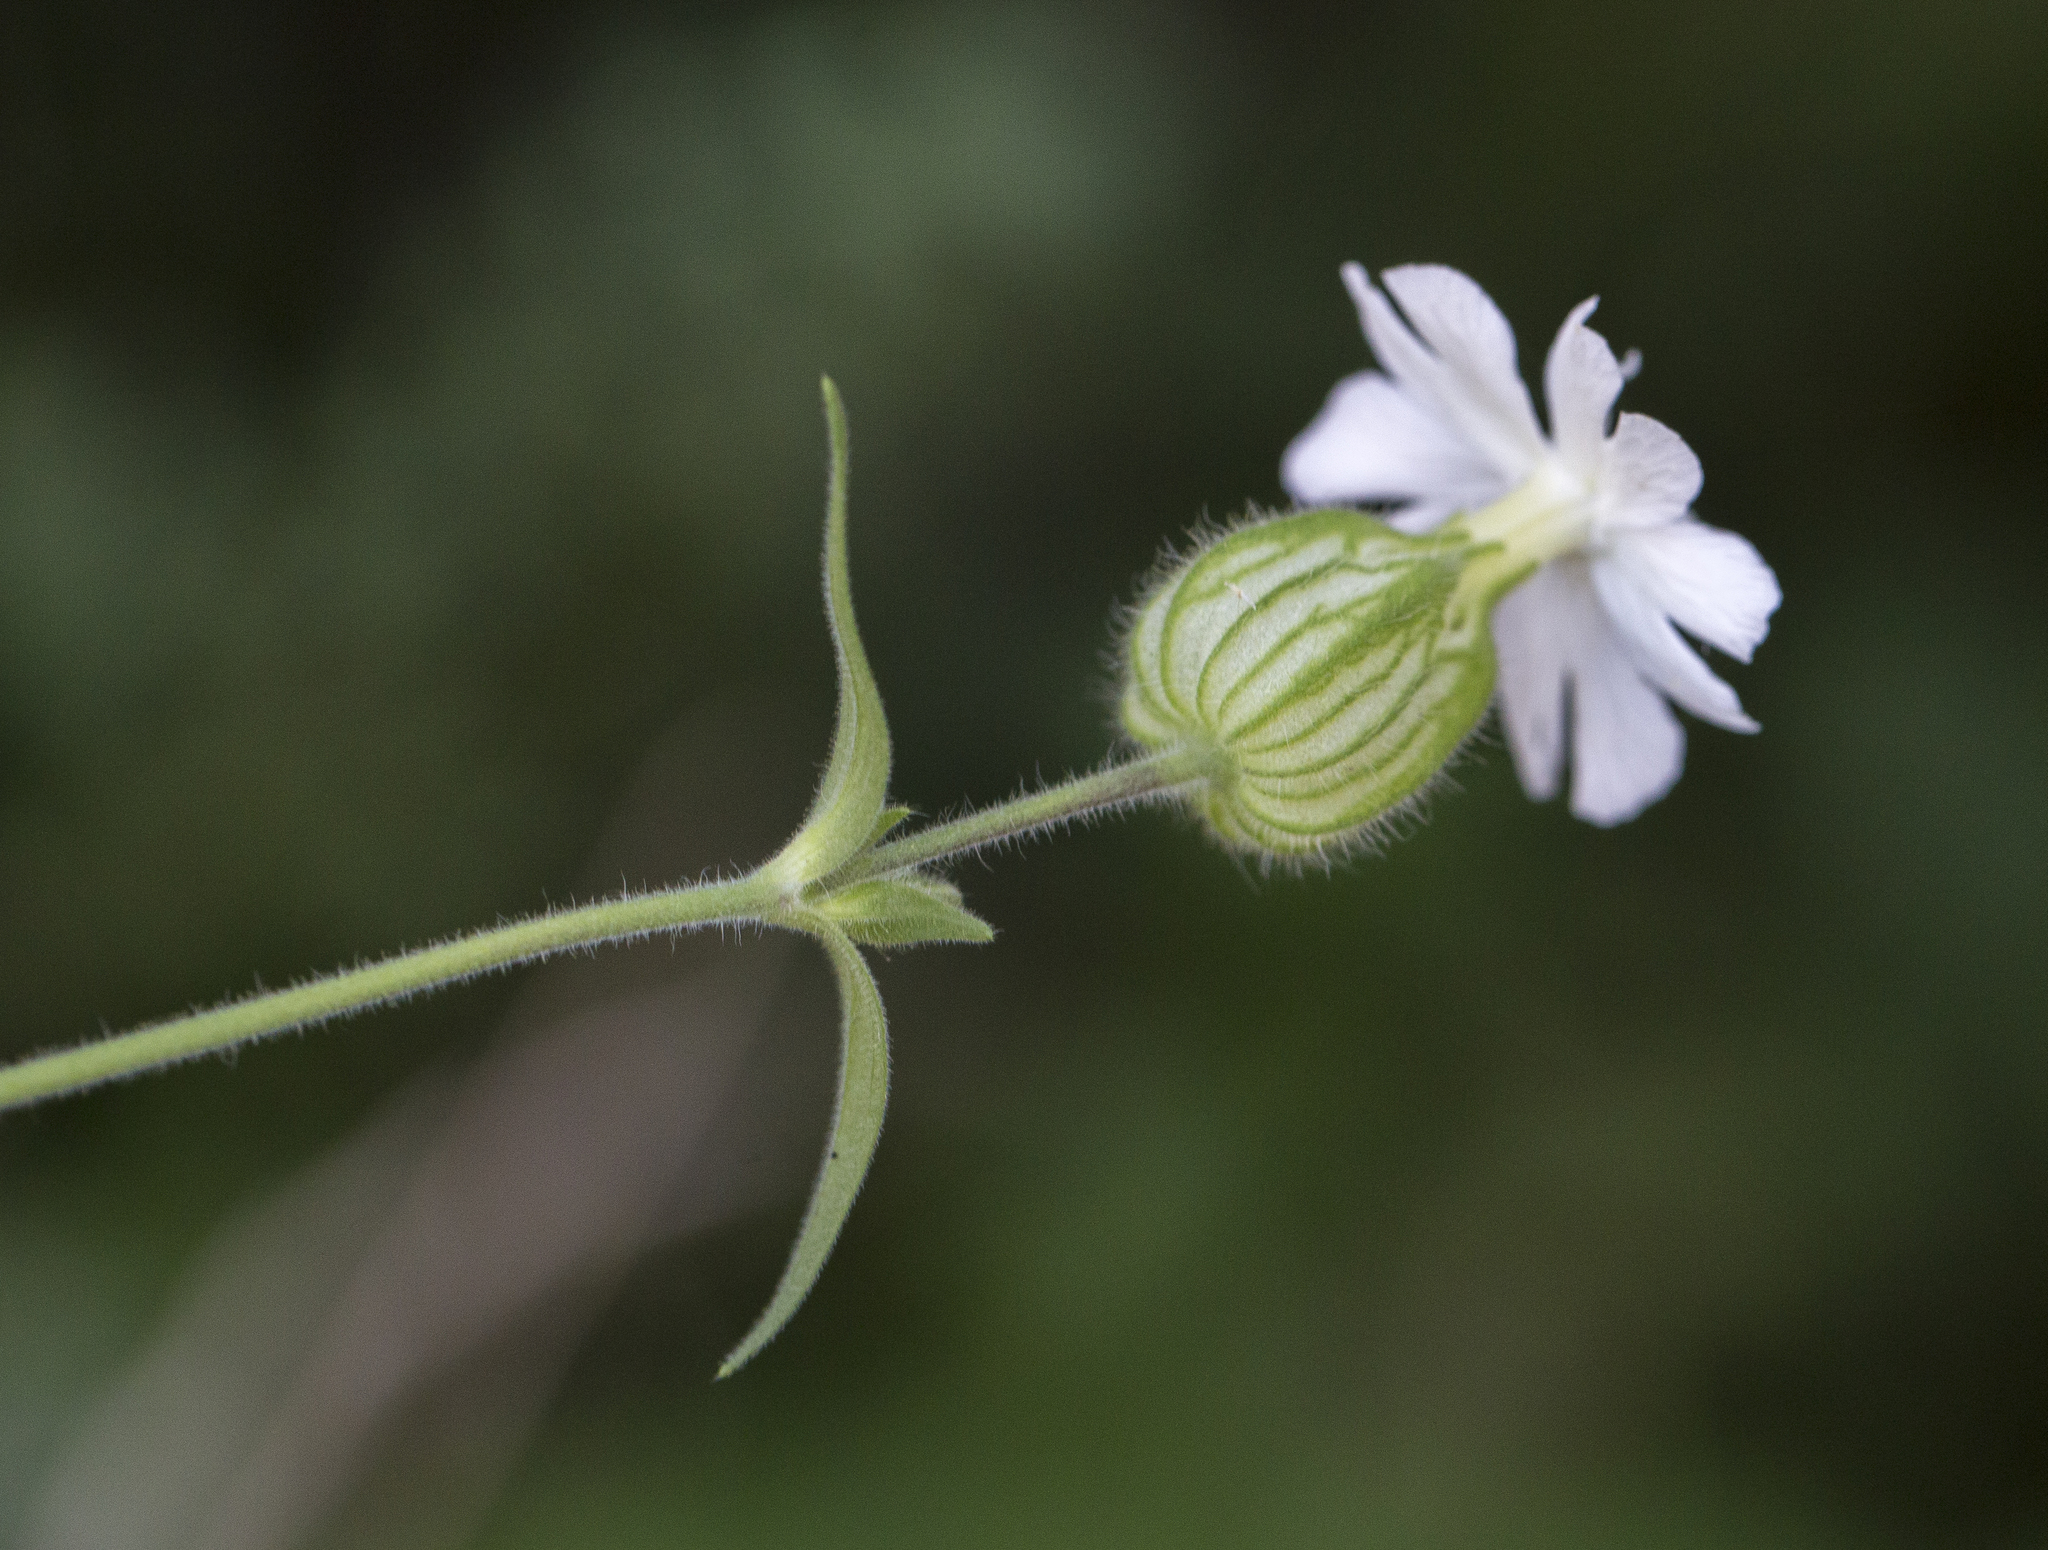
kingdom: Plantae
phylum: Tracheophyta
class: Magnoliopsida
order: Caryophyllales
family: Caryophyllaceae
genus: Silene
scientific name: Silene latifolia
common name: White campion
